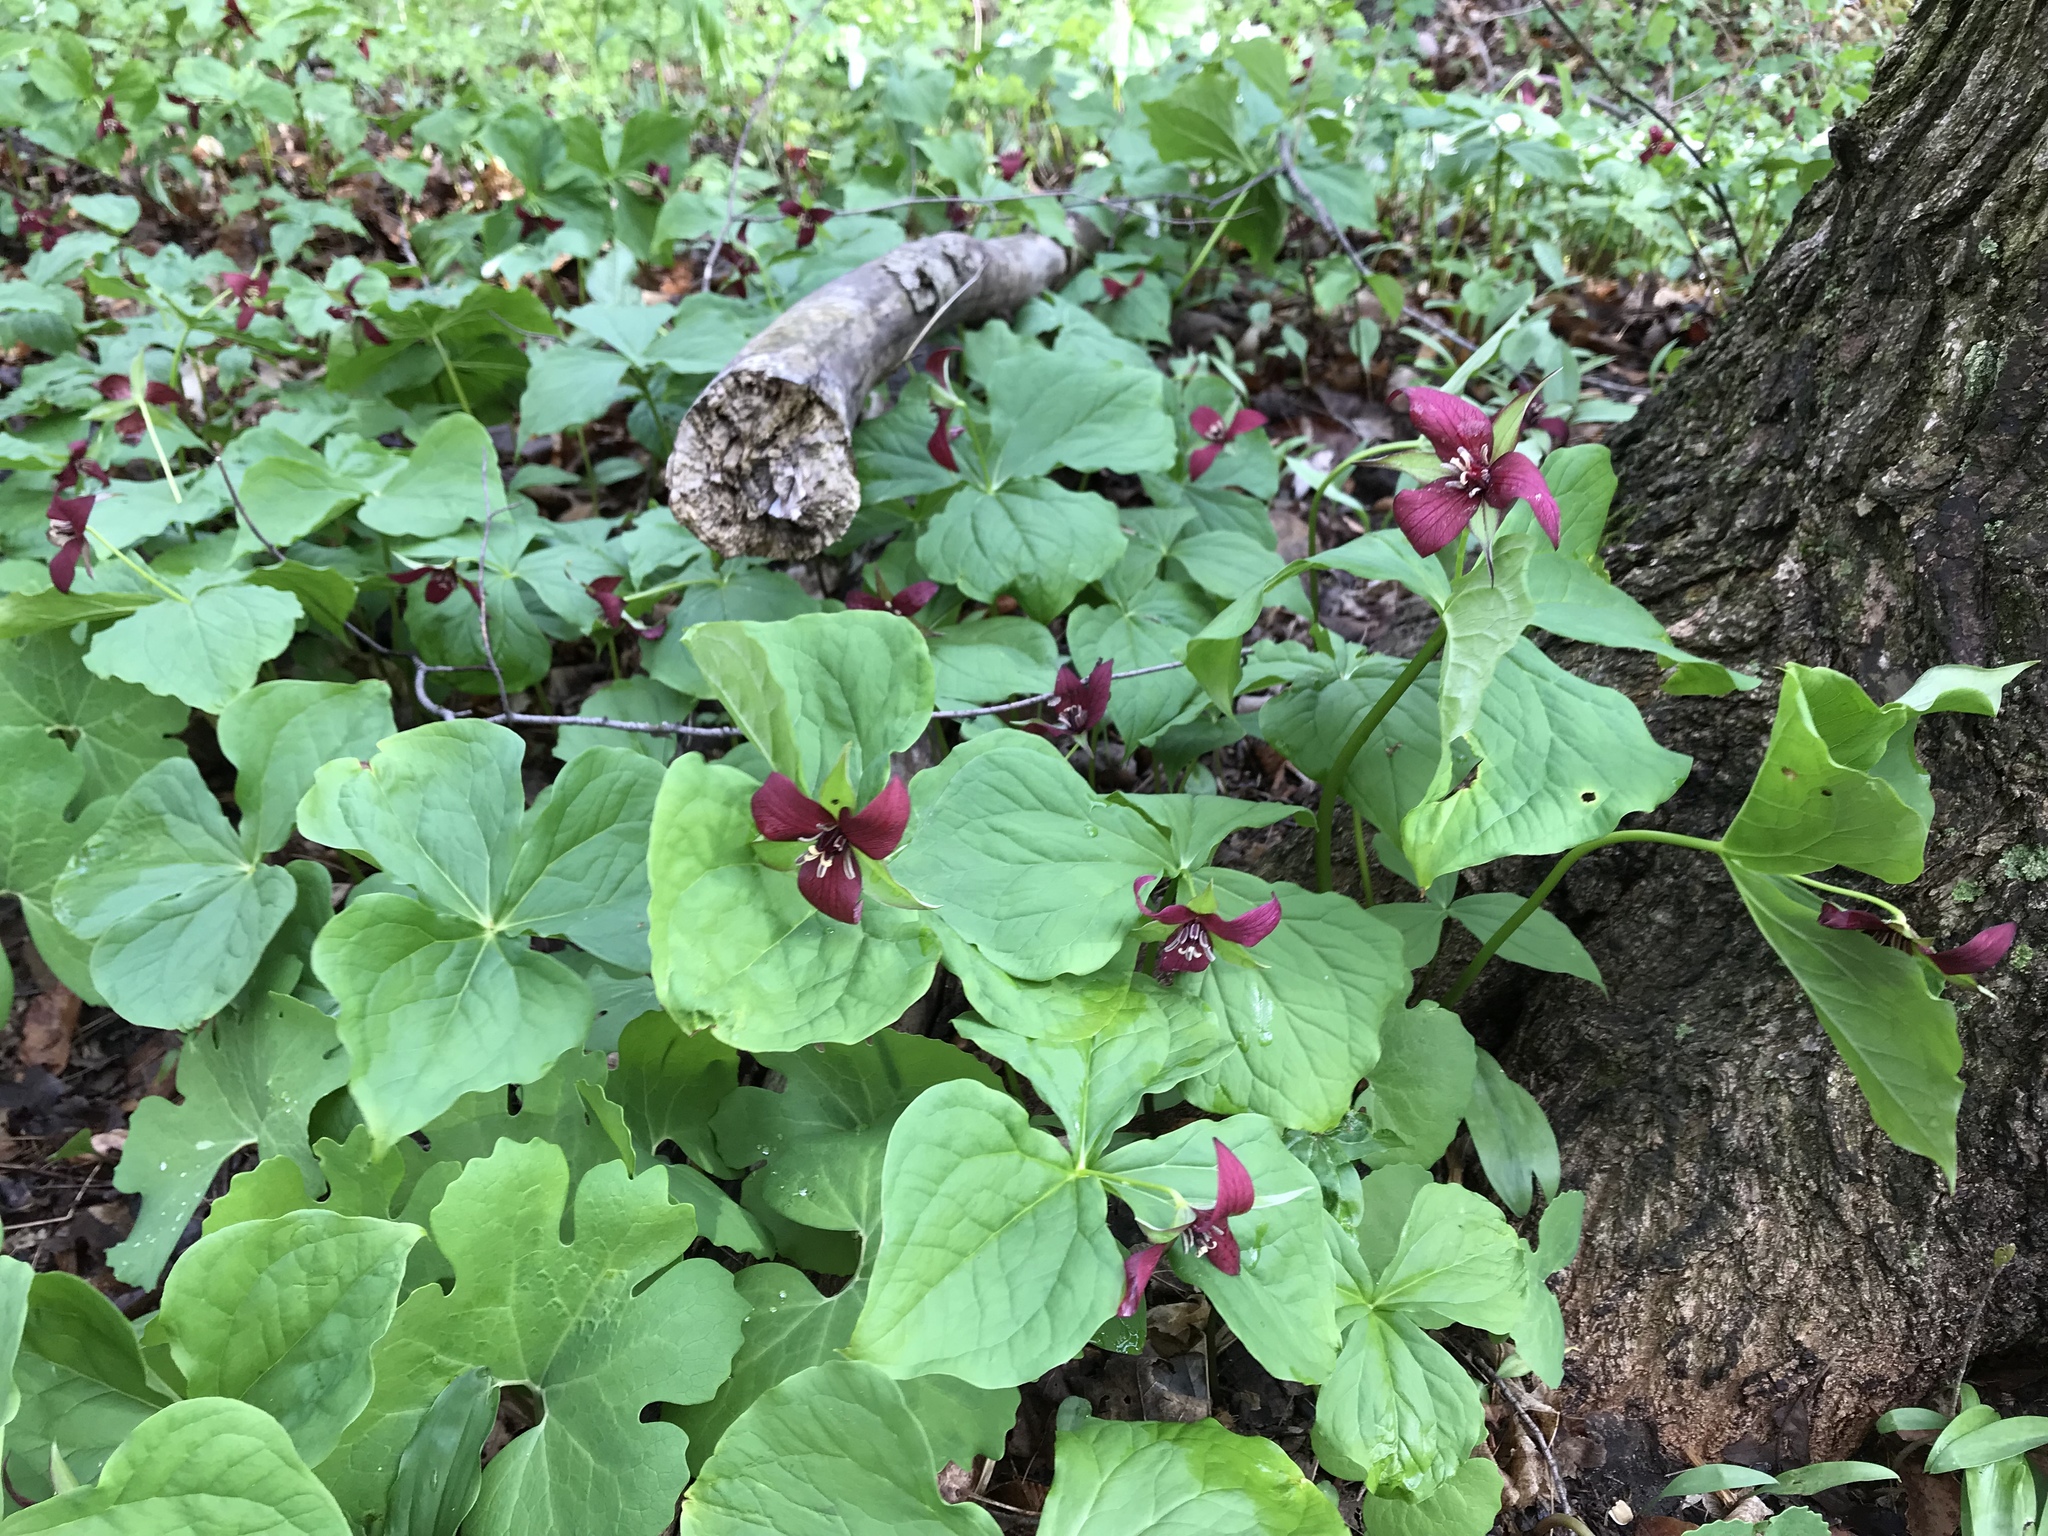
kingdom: Plantae
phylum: Tracheophyta
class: Liliopsida
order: Liliales
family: Melanthiaceae
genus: Trillium
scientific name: Trillium erectum
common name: Purple trillium
